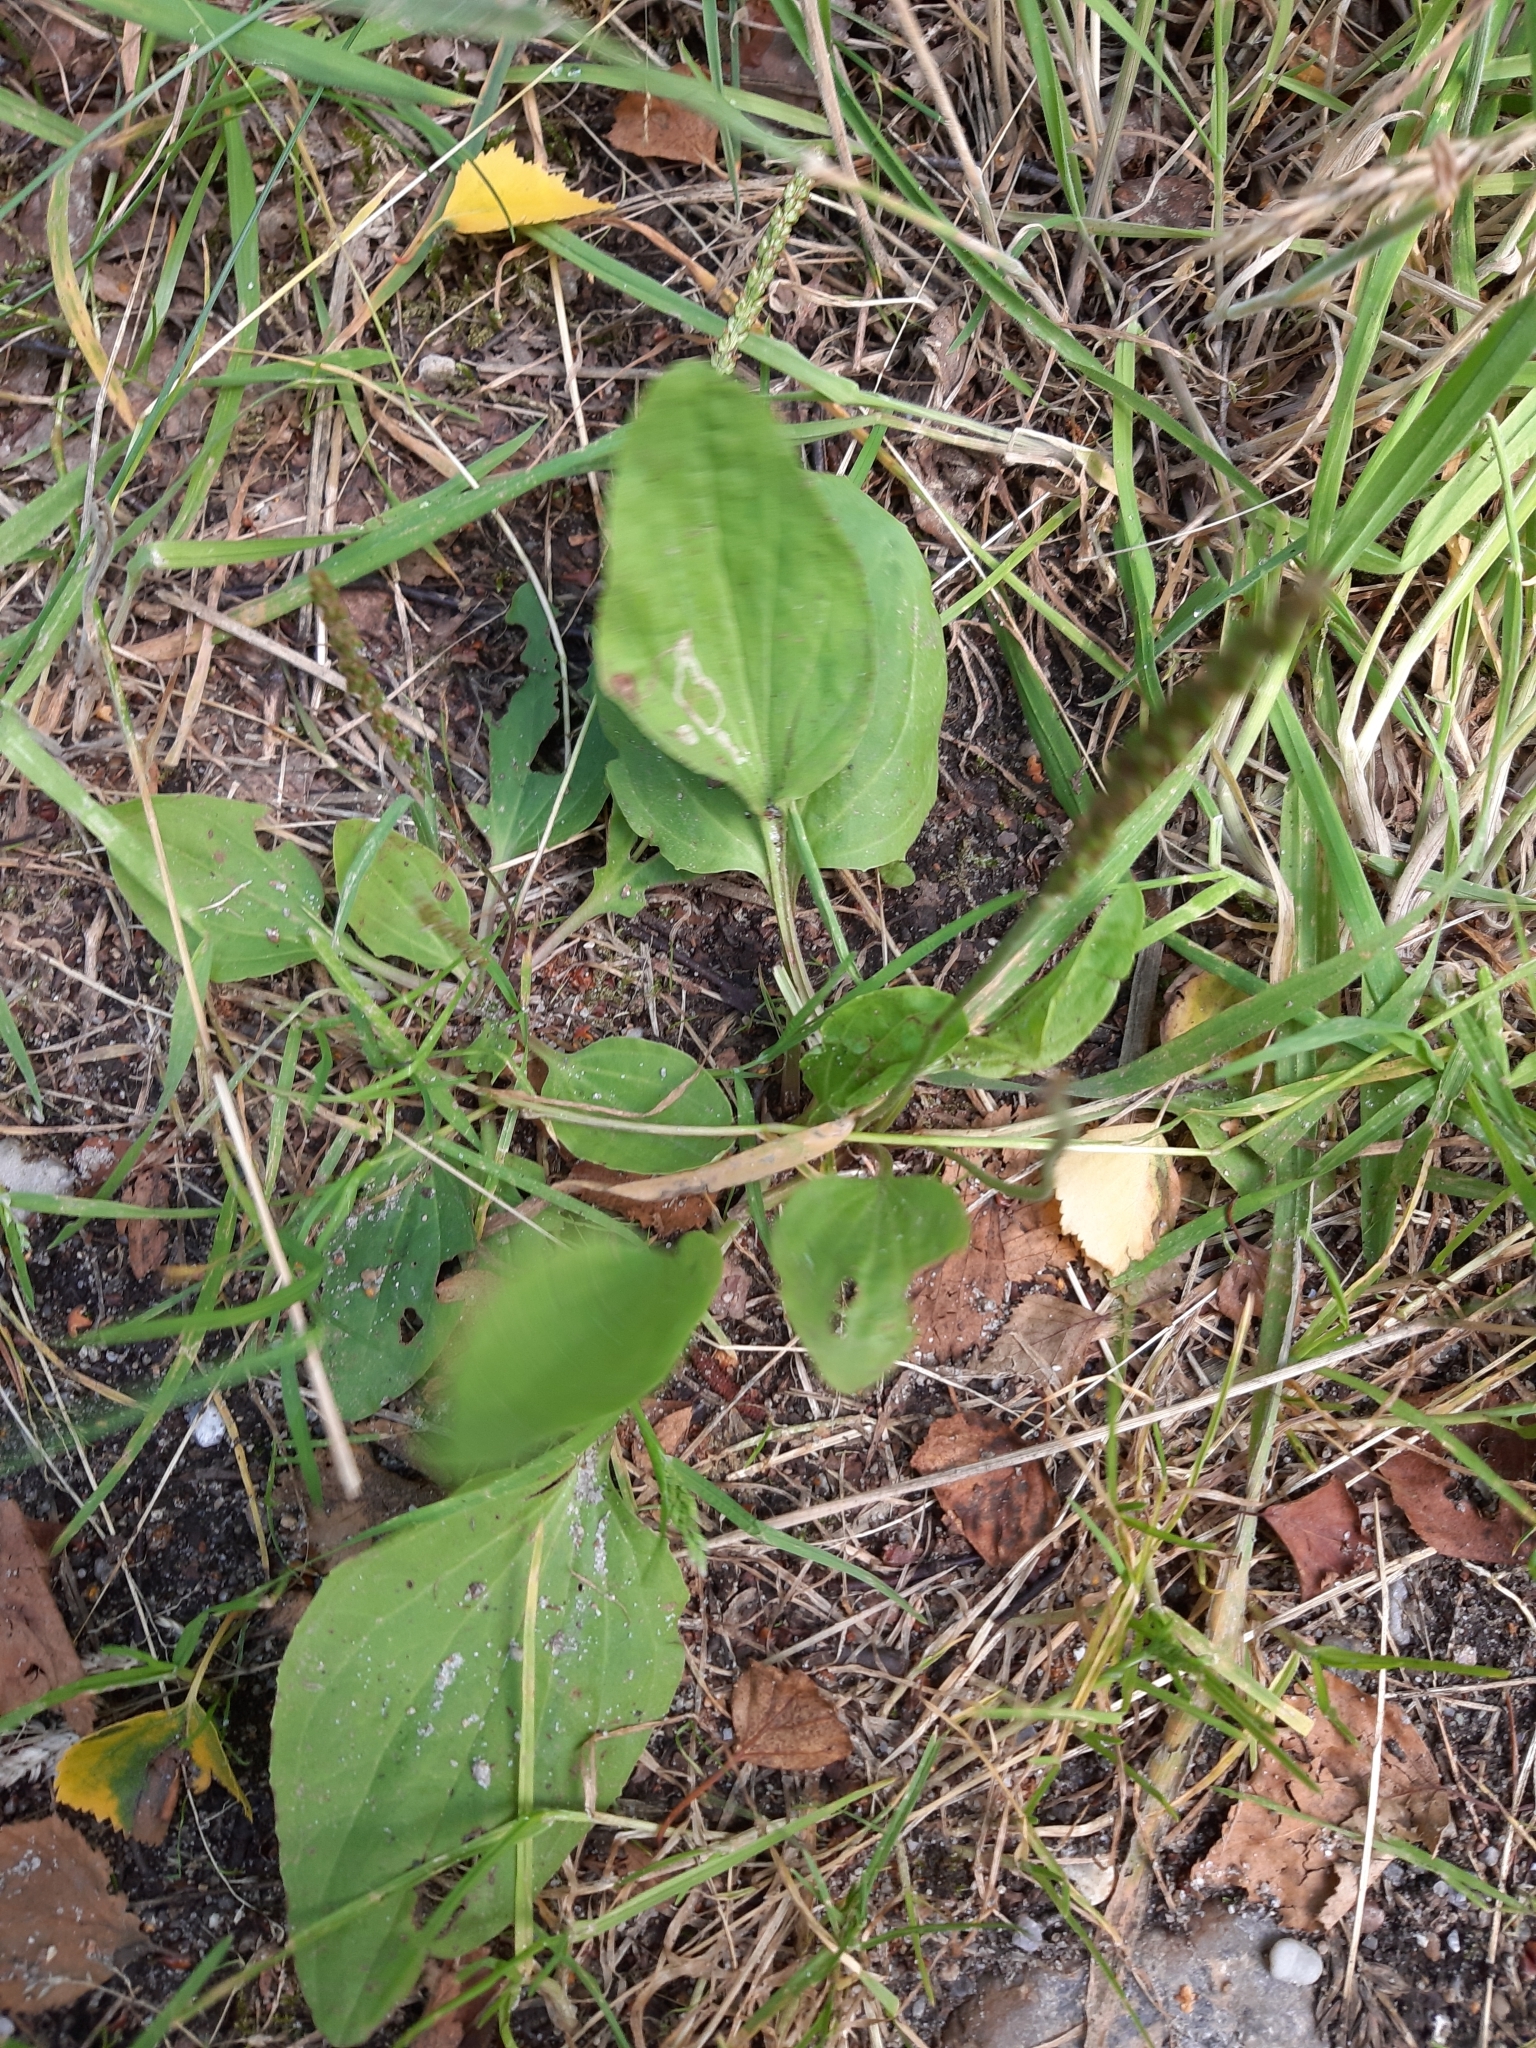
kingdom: Plantae
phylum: Tracheophyta
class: Magnoliopsida
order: Lamiales
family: Plantaginaceae
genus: Plantago
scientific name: Plantago major
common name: Common plantain
